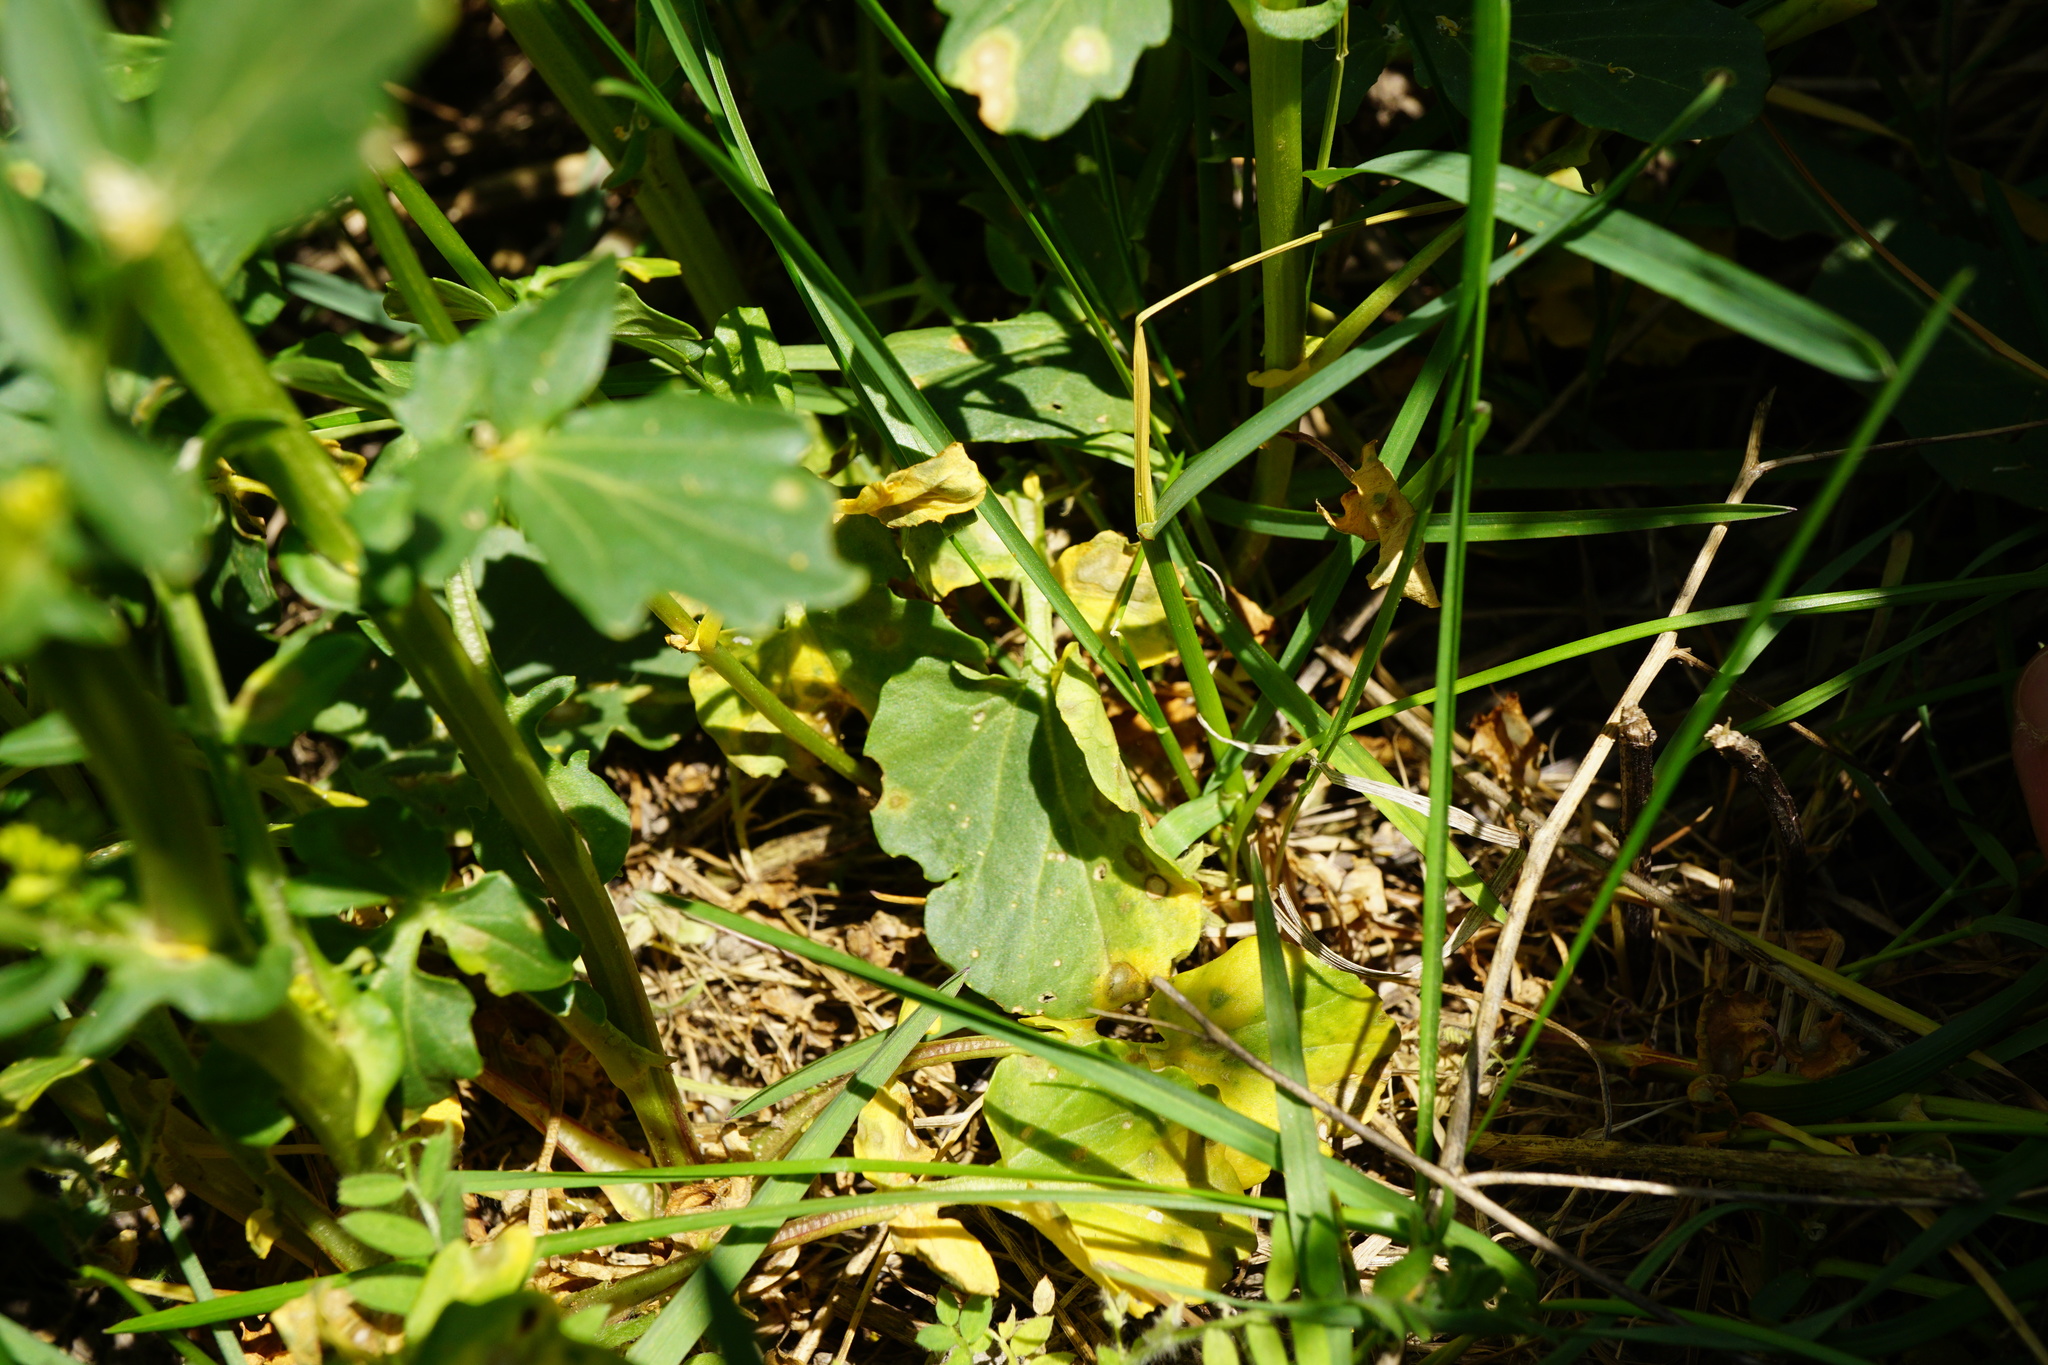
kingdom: Plantae
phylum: Tracheophyta
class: Magnoliopsida
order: Brassicales
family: Brassicaceae
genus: Barbarea
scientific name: Barbarea vulgaris
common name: Cressy-greens
